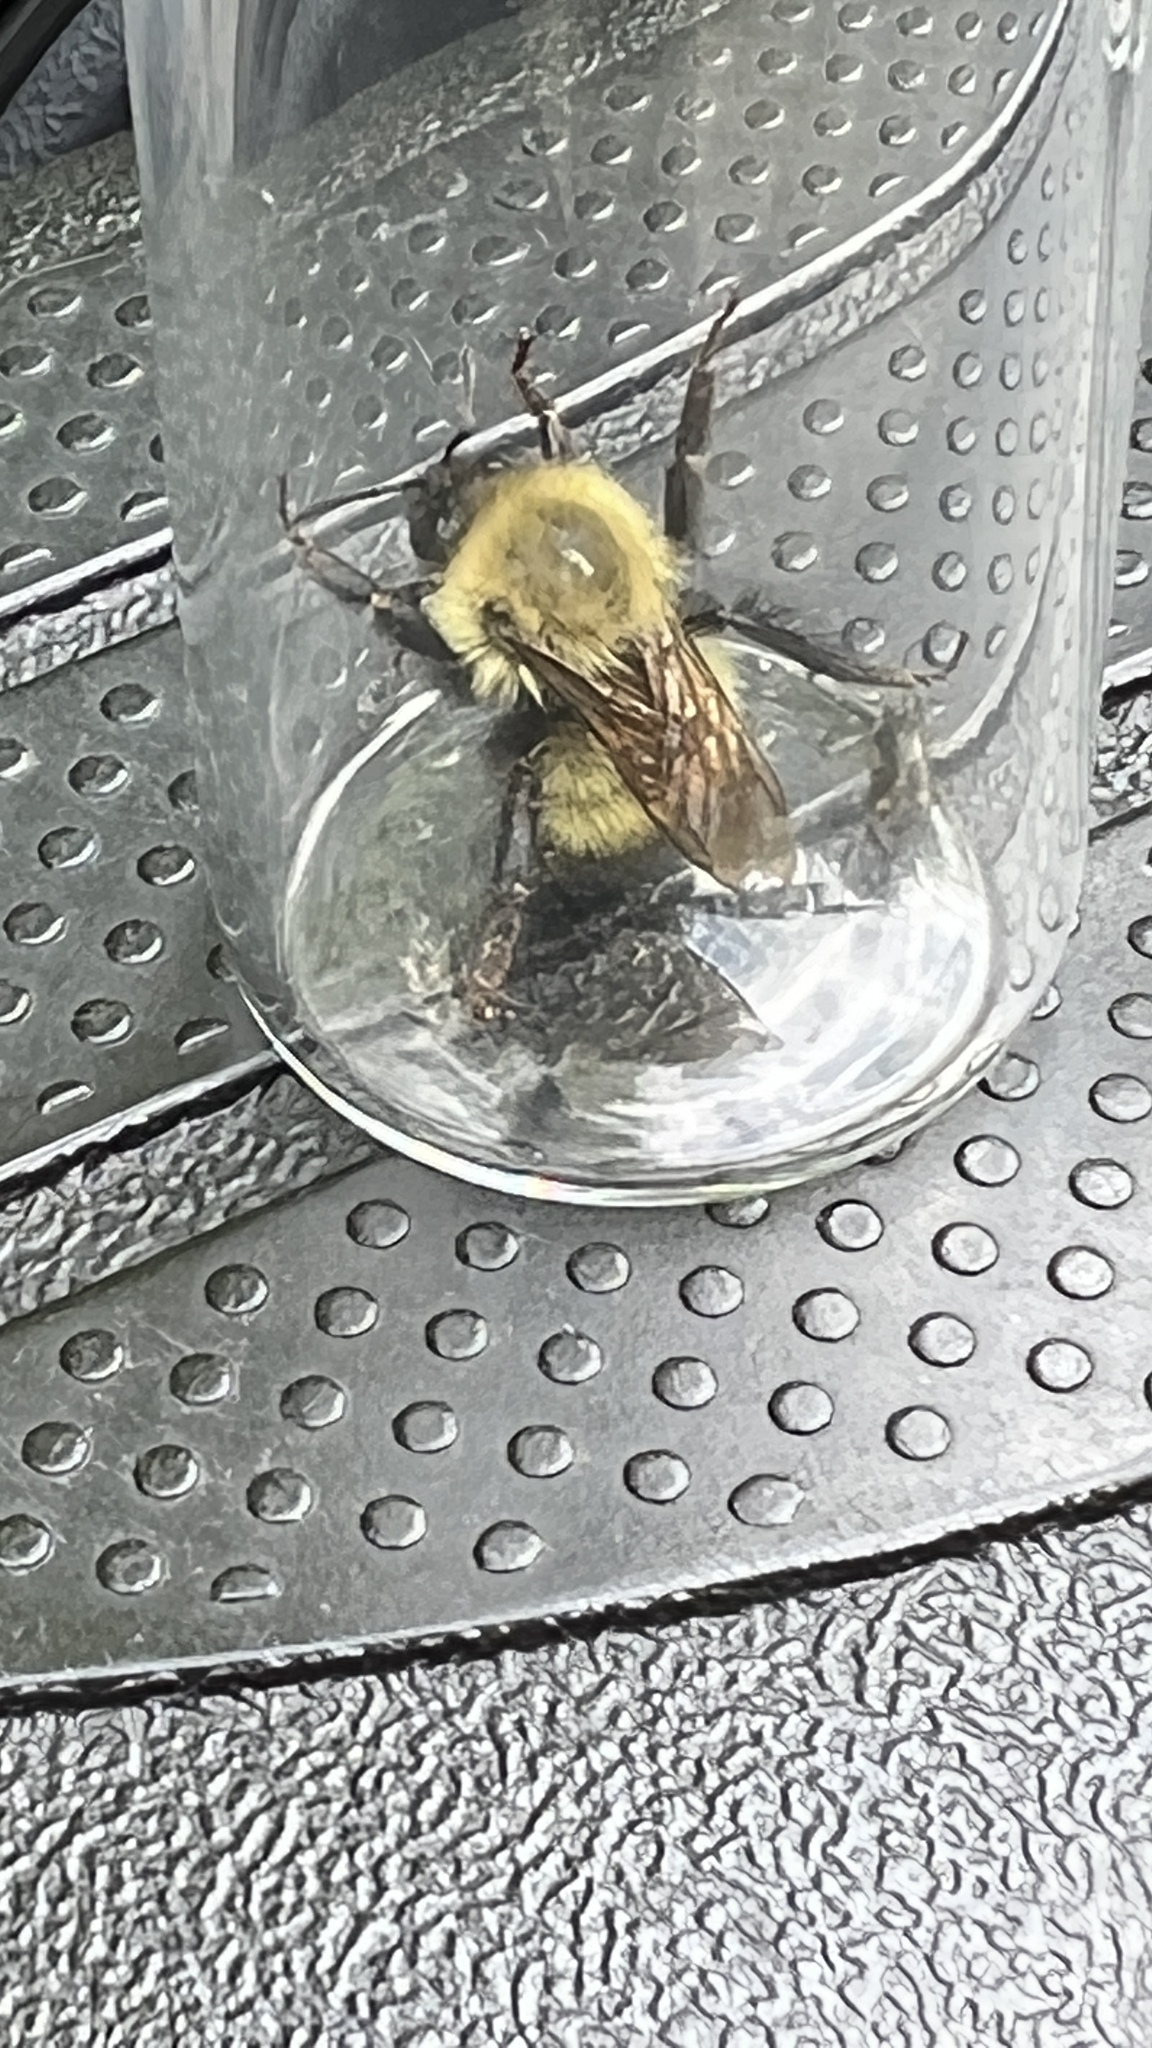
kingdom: Animalia
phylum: Arthropoda
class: Insecta
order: Hymenoptera
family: Apidae
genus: Pyrobombus
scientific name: Pyrobombus
